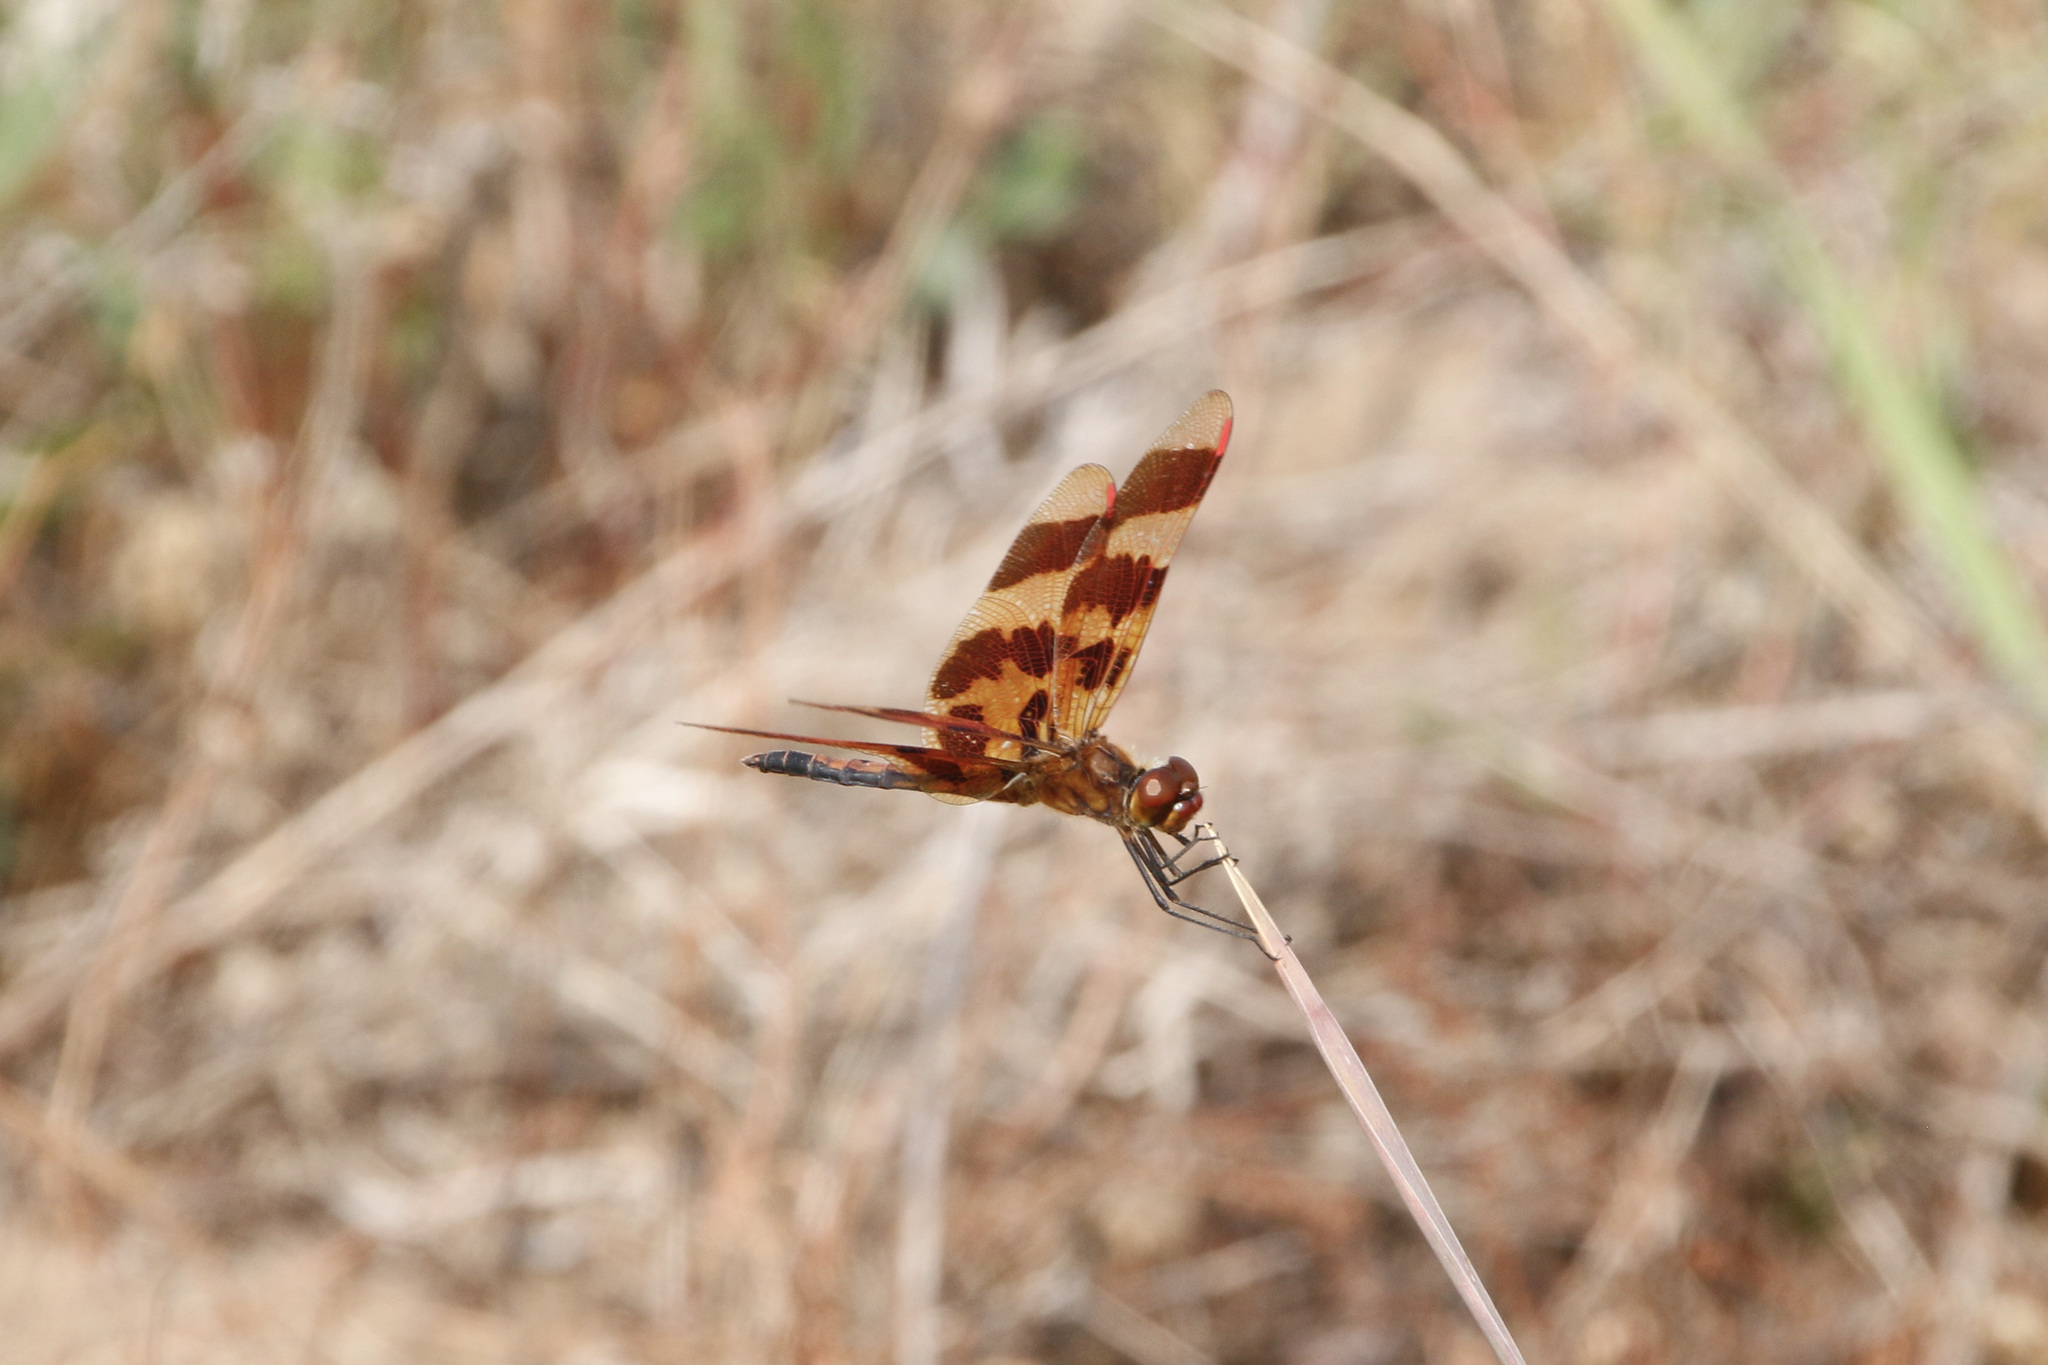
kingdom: Animalia
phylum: Arthropoda
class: Insecta
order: Odonata
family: Libellulidae
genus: Celithemis
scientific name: Celithemis eponina
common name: Halloween pennant
